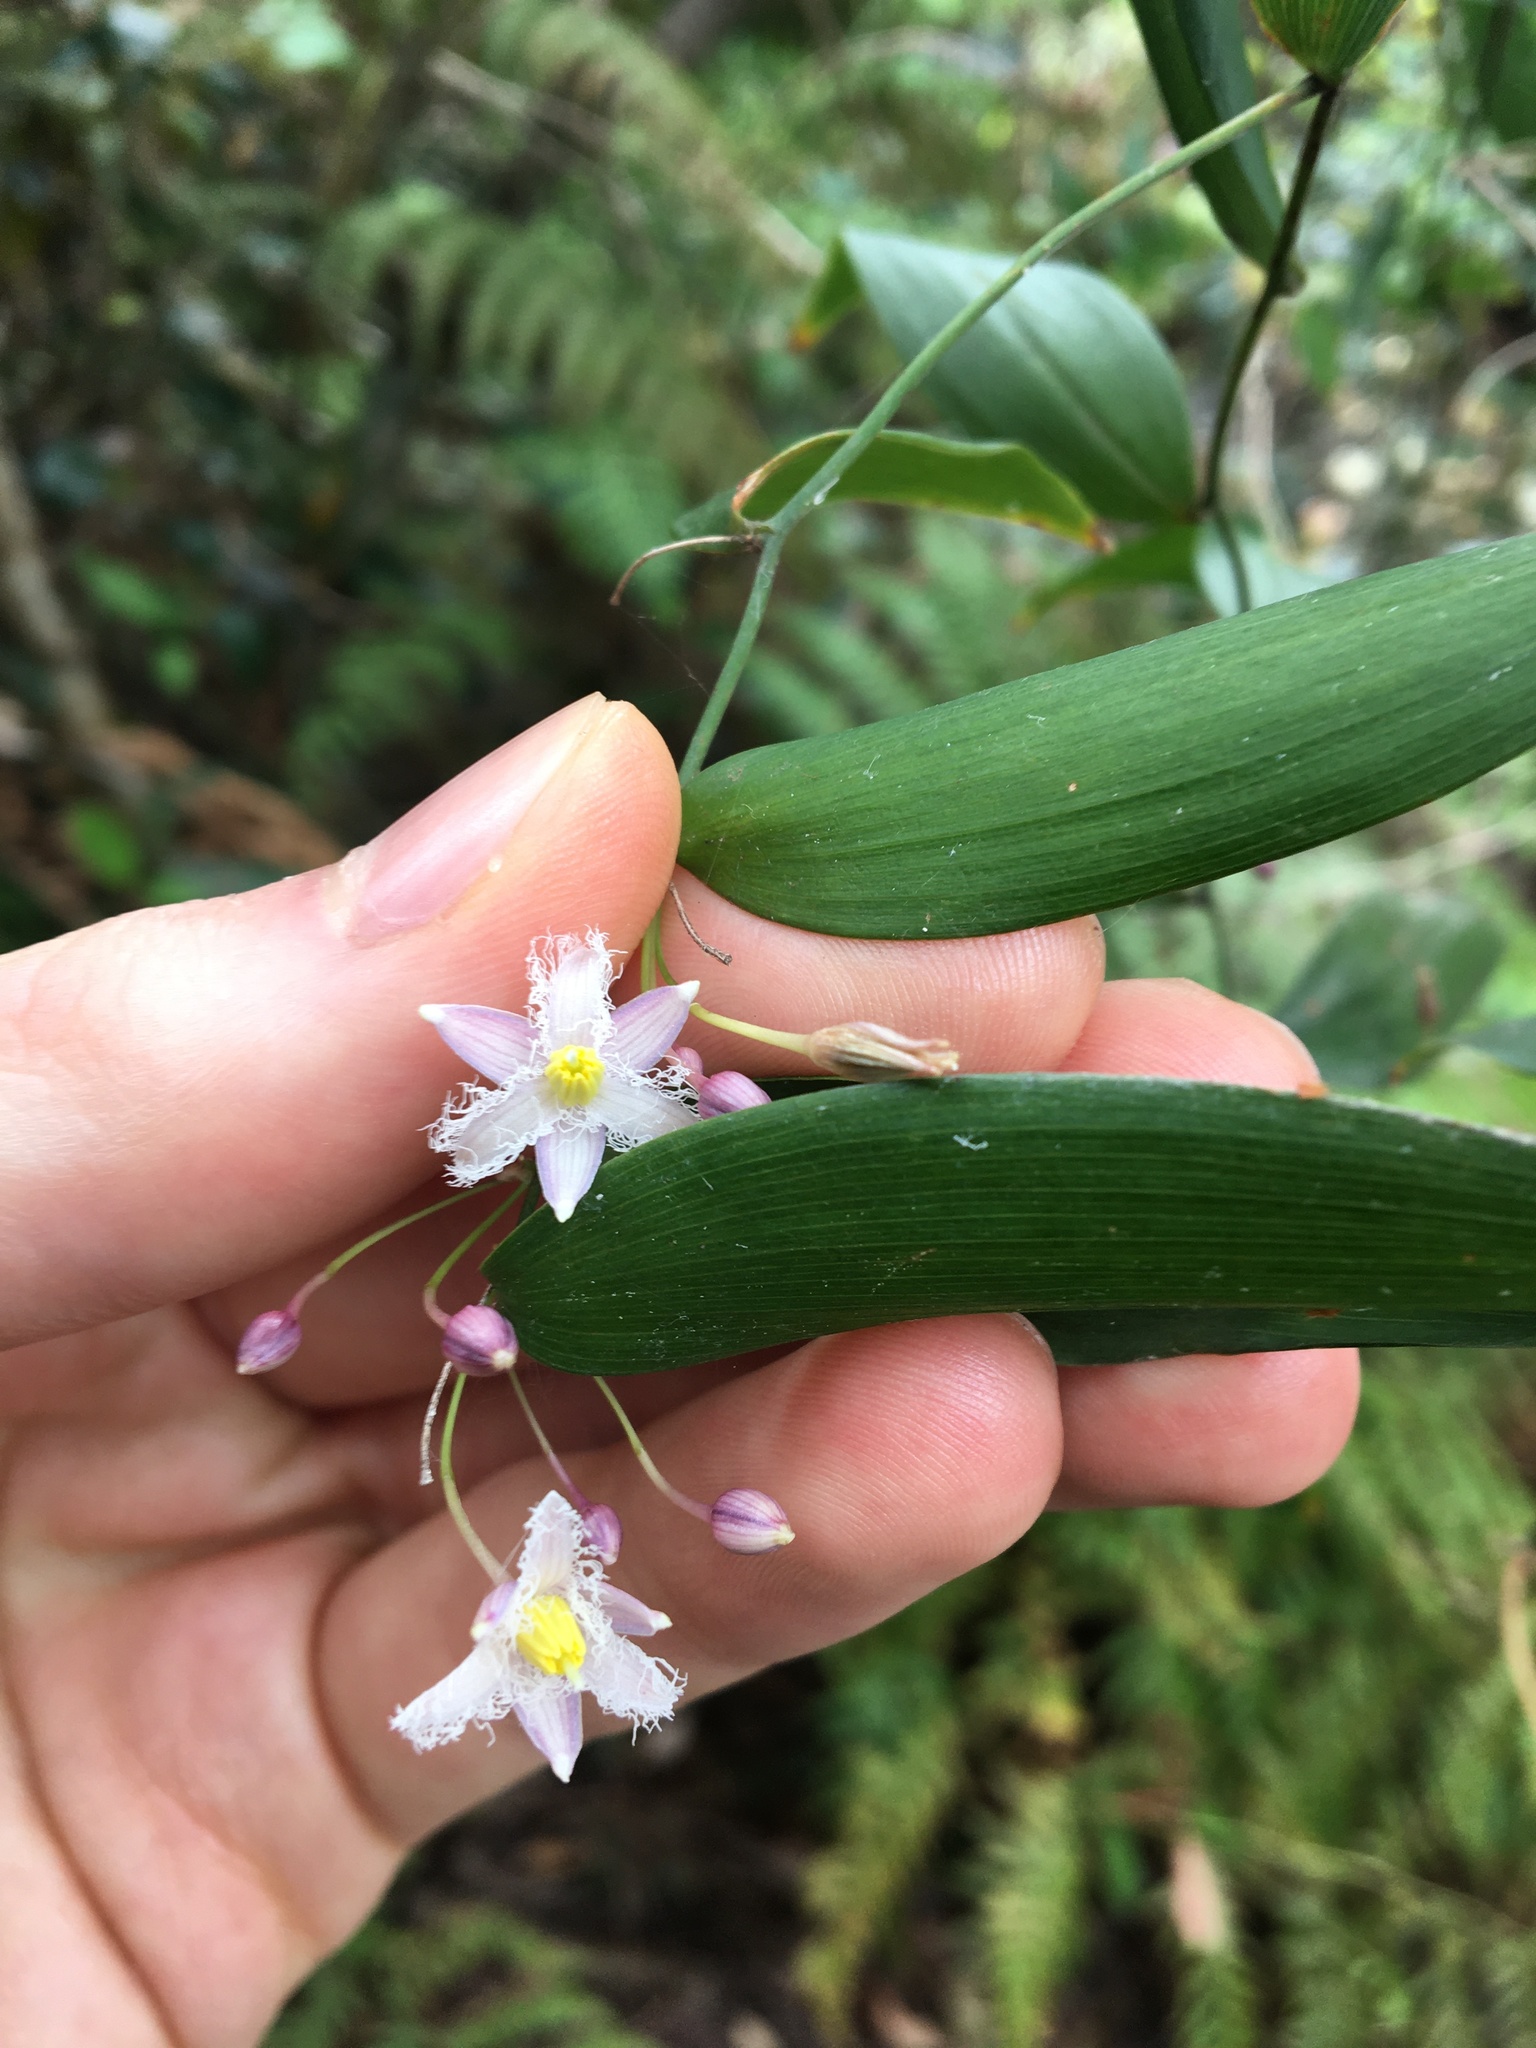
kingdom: Plantae
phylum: Tracheophyta
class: Liliopsida
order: Asparagales
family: Asparagaceae
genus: Eustrephus
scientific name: Eustrephus latifolius
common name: Orangevine
